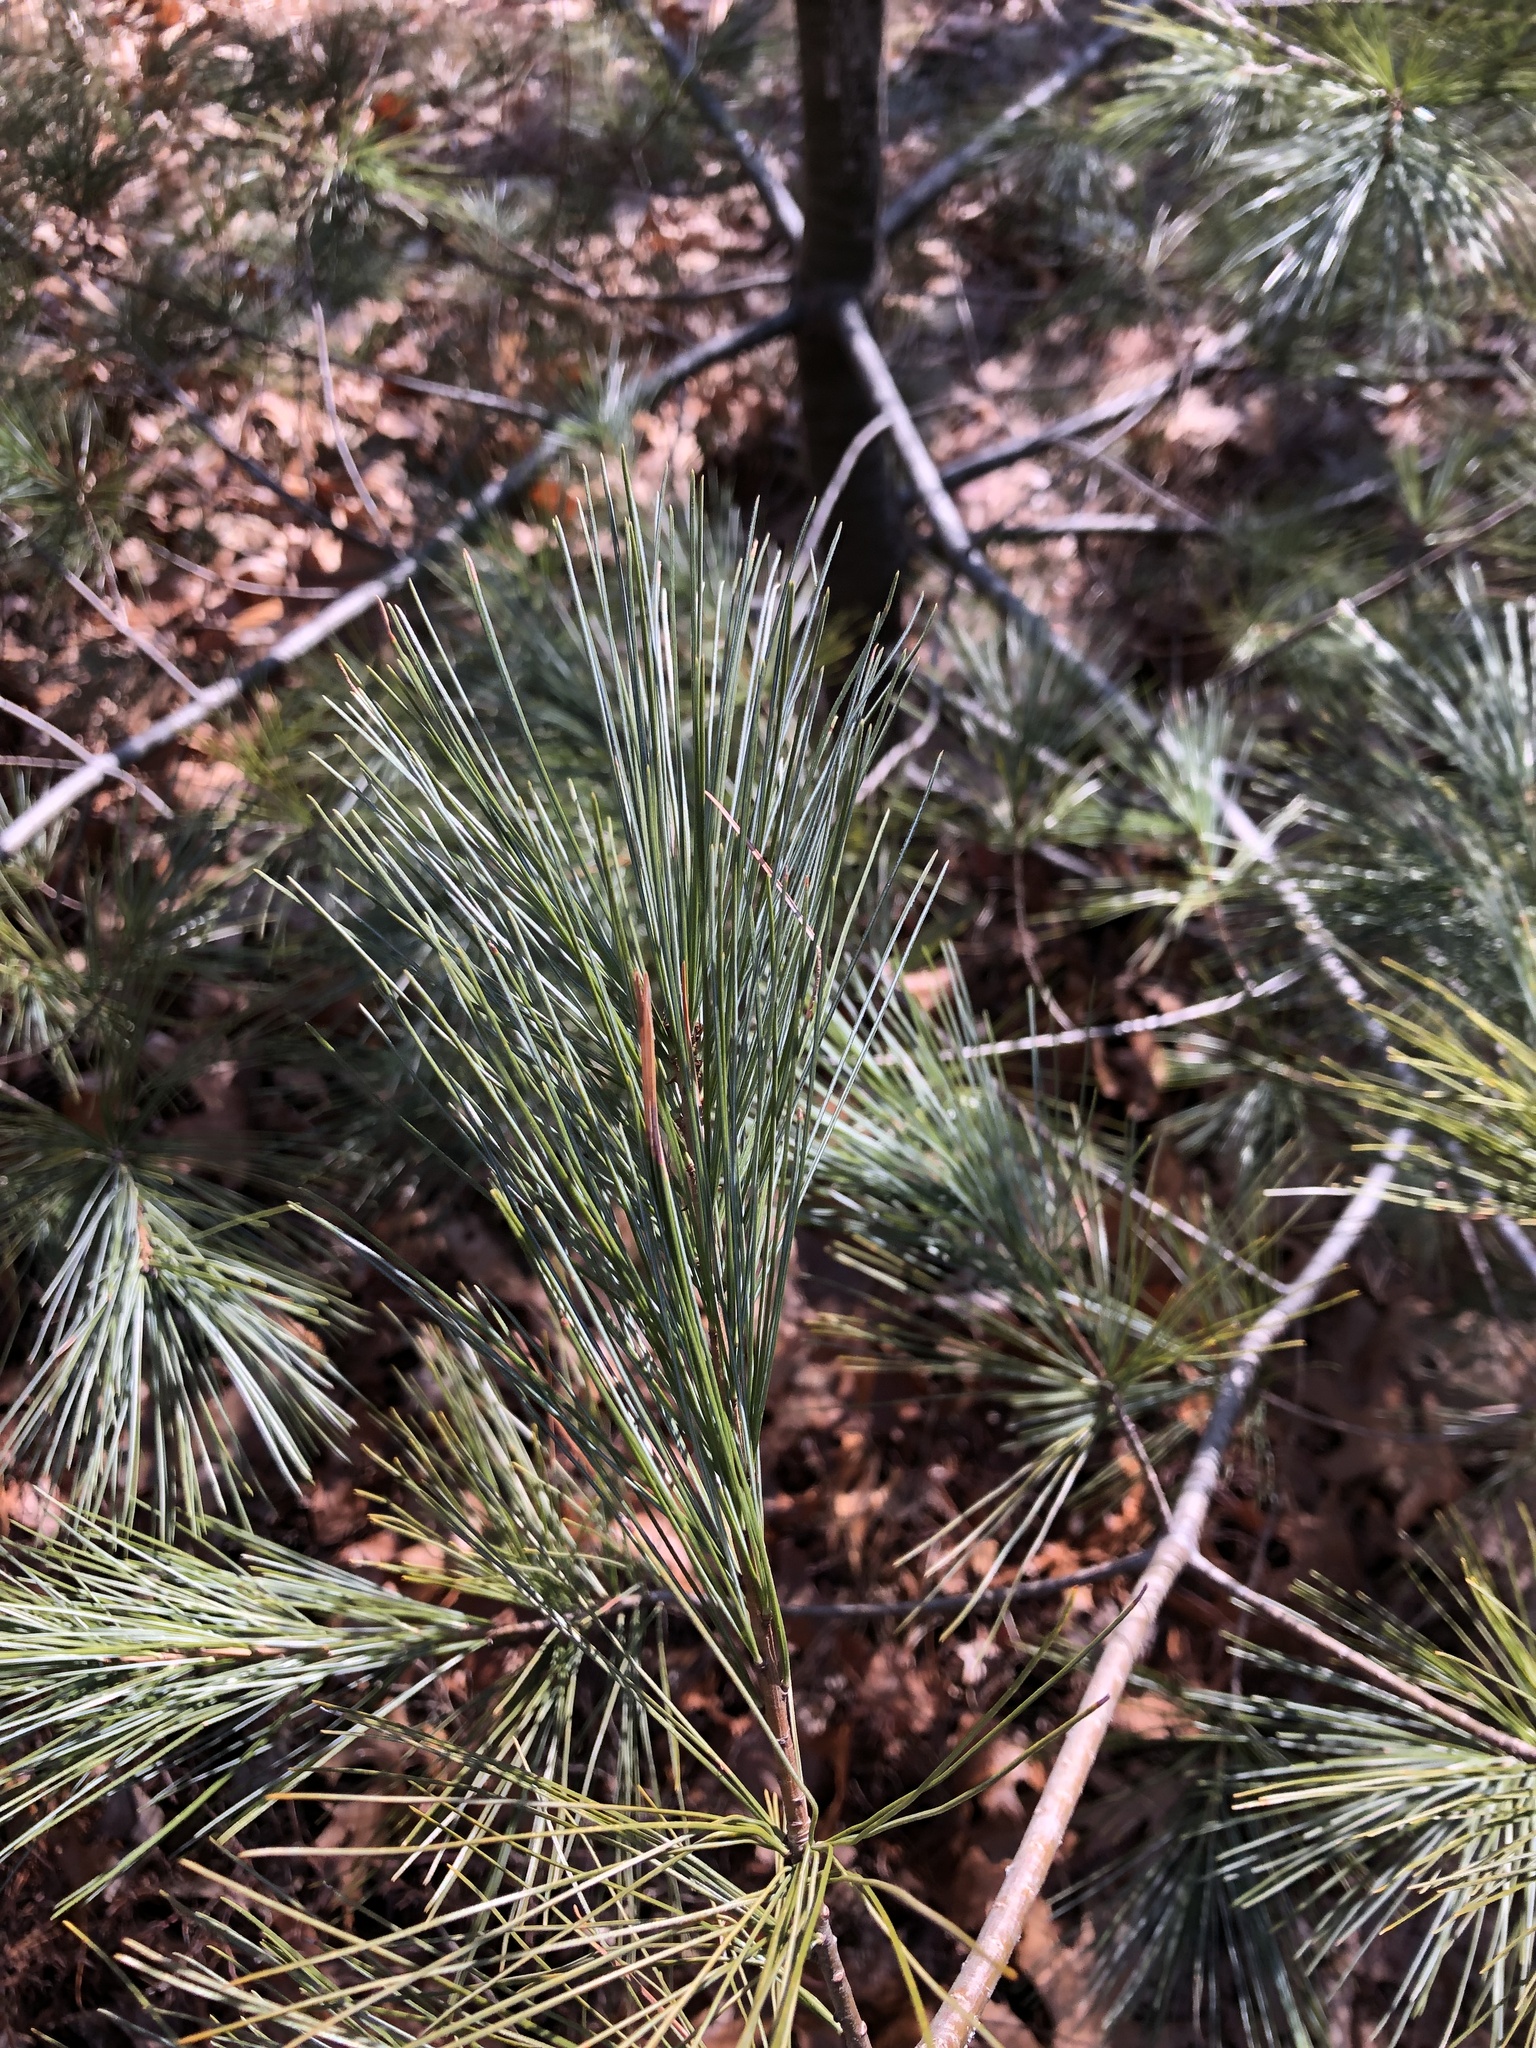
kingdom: Plantae
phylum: Tracheophyta
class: Pinopsida
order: Pinales
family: Pinaceae
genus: Pinus
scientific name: Pinus strobus
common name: Weymouth pine
